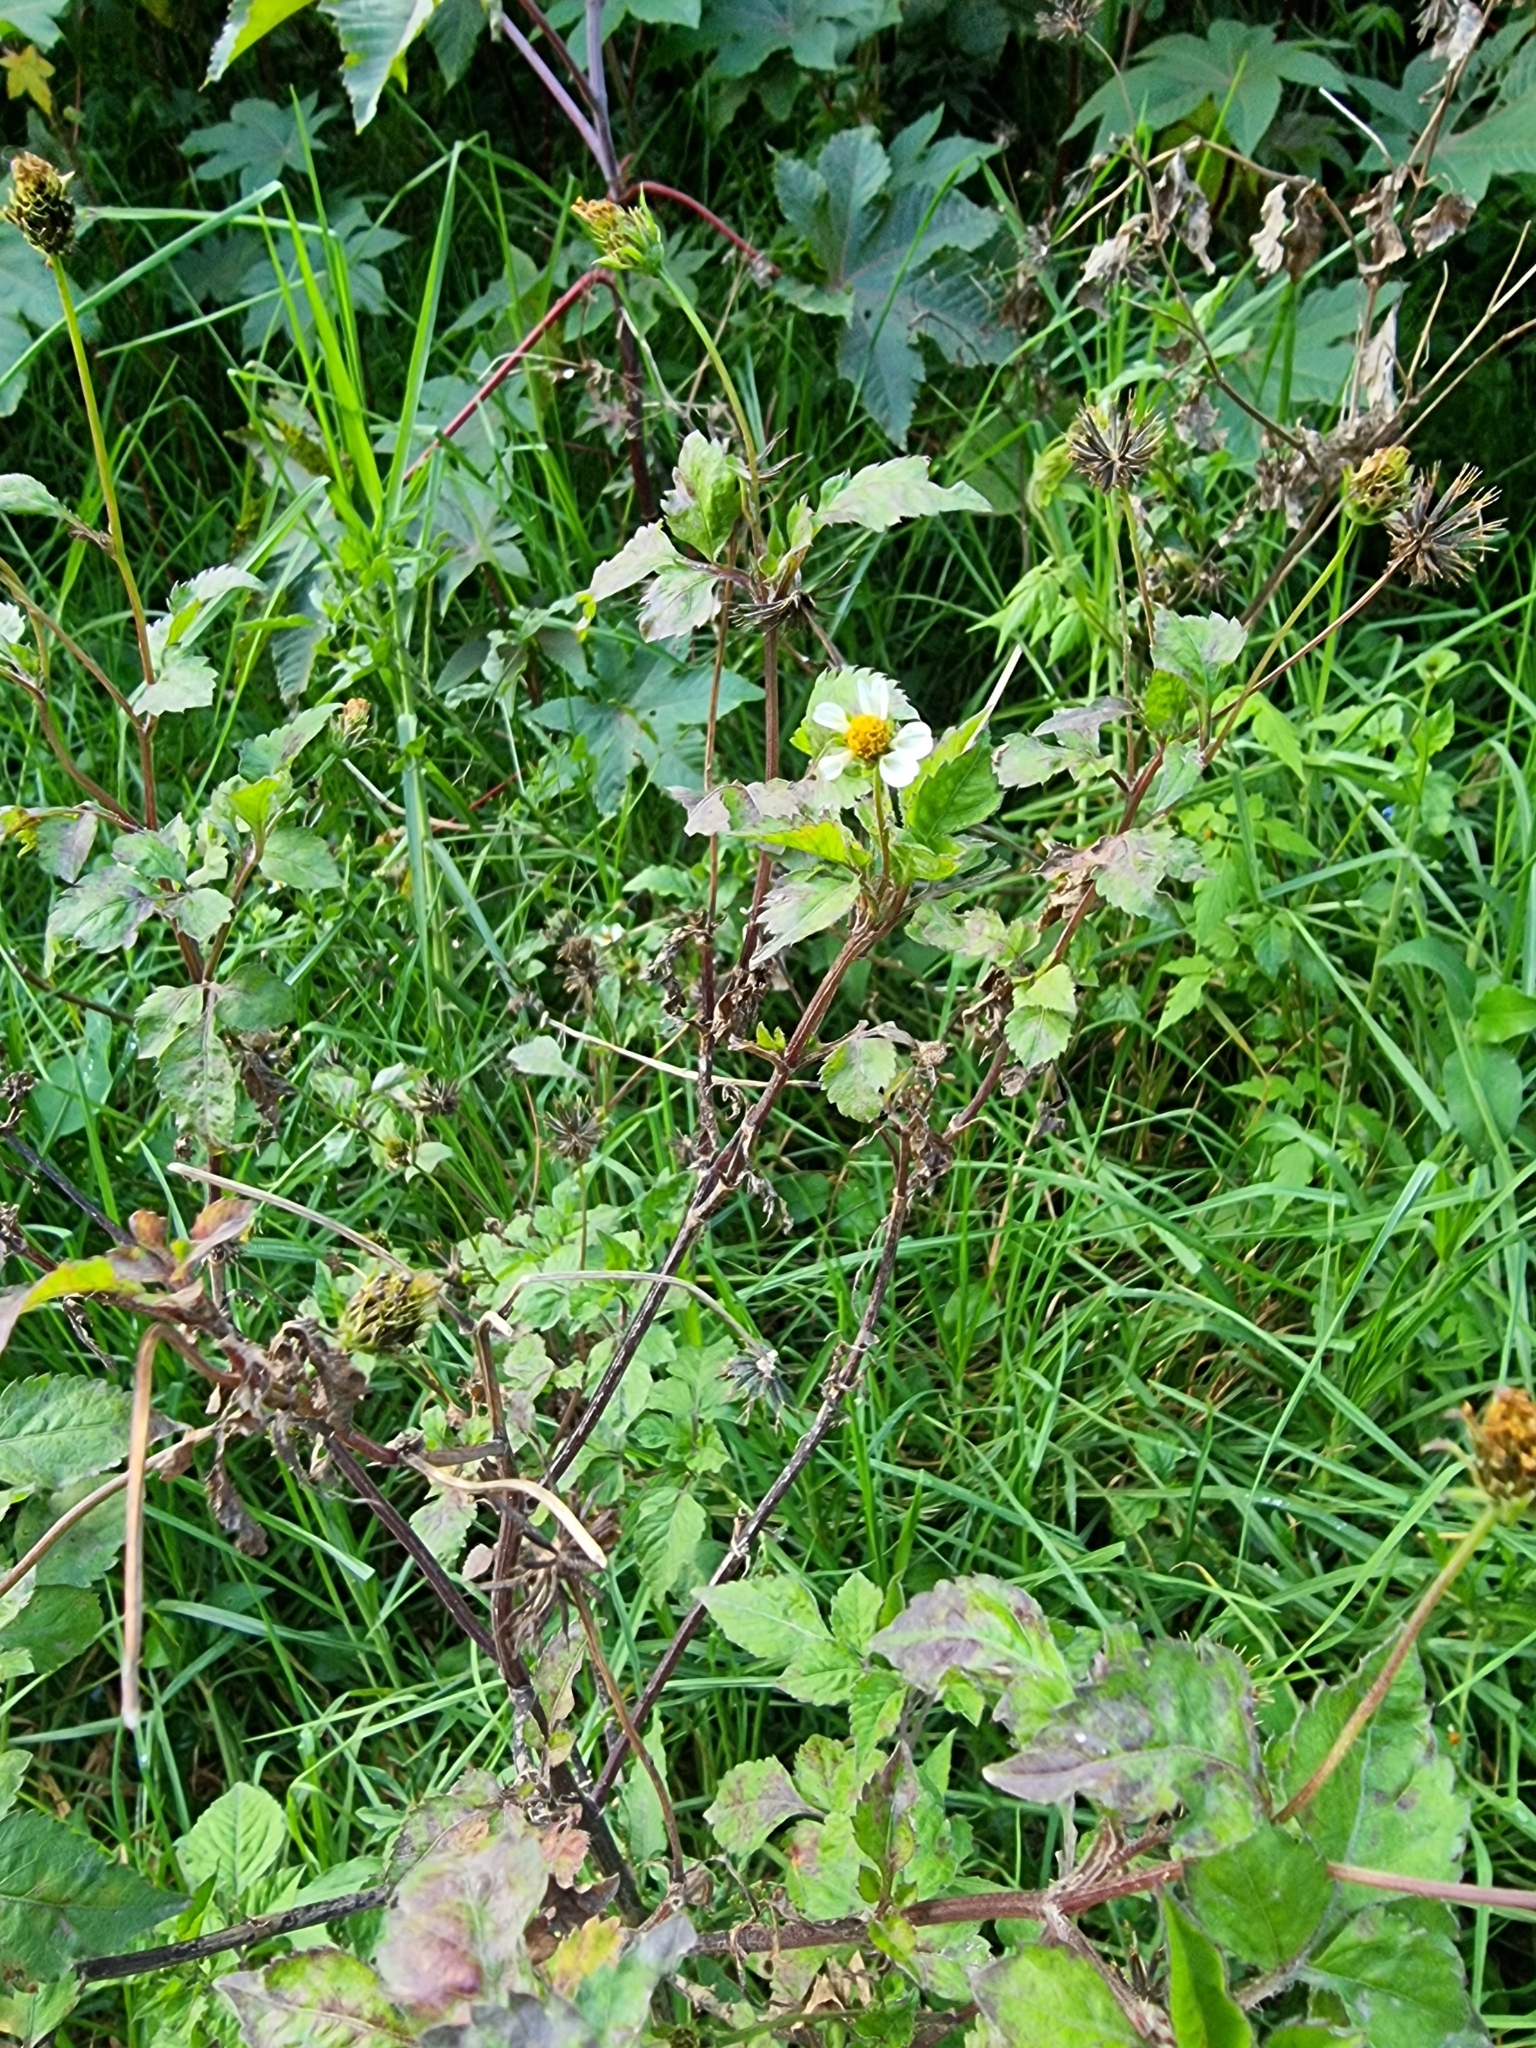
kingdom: Plantae
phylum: Tracheophyta
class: Magnoliopsida
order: Asterales
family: Asteraceae
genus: Bidens
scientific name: Bidens pilosa
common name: Black-jack
